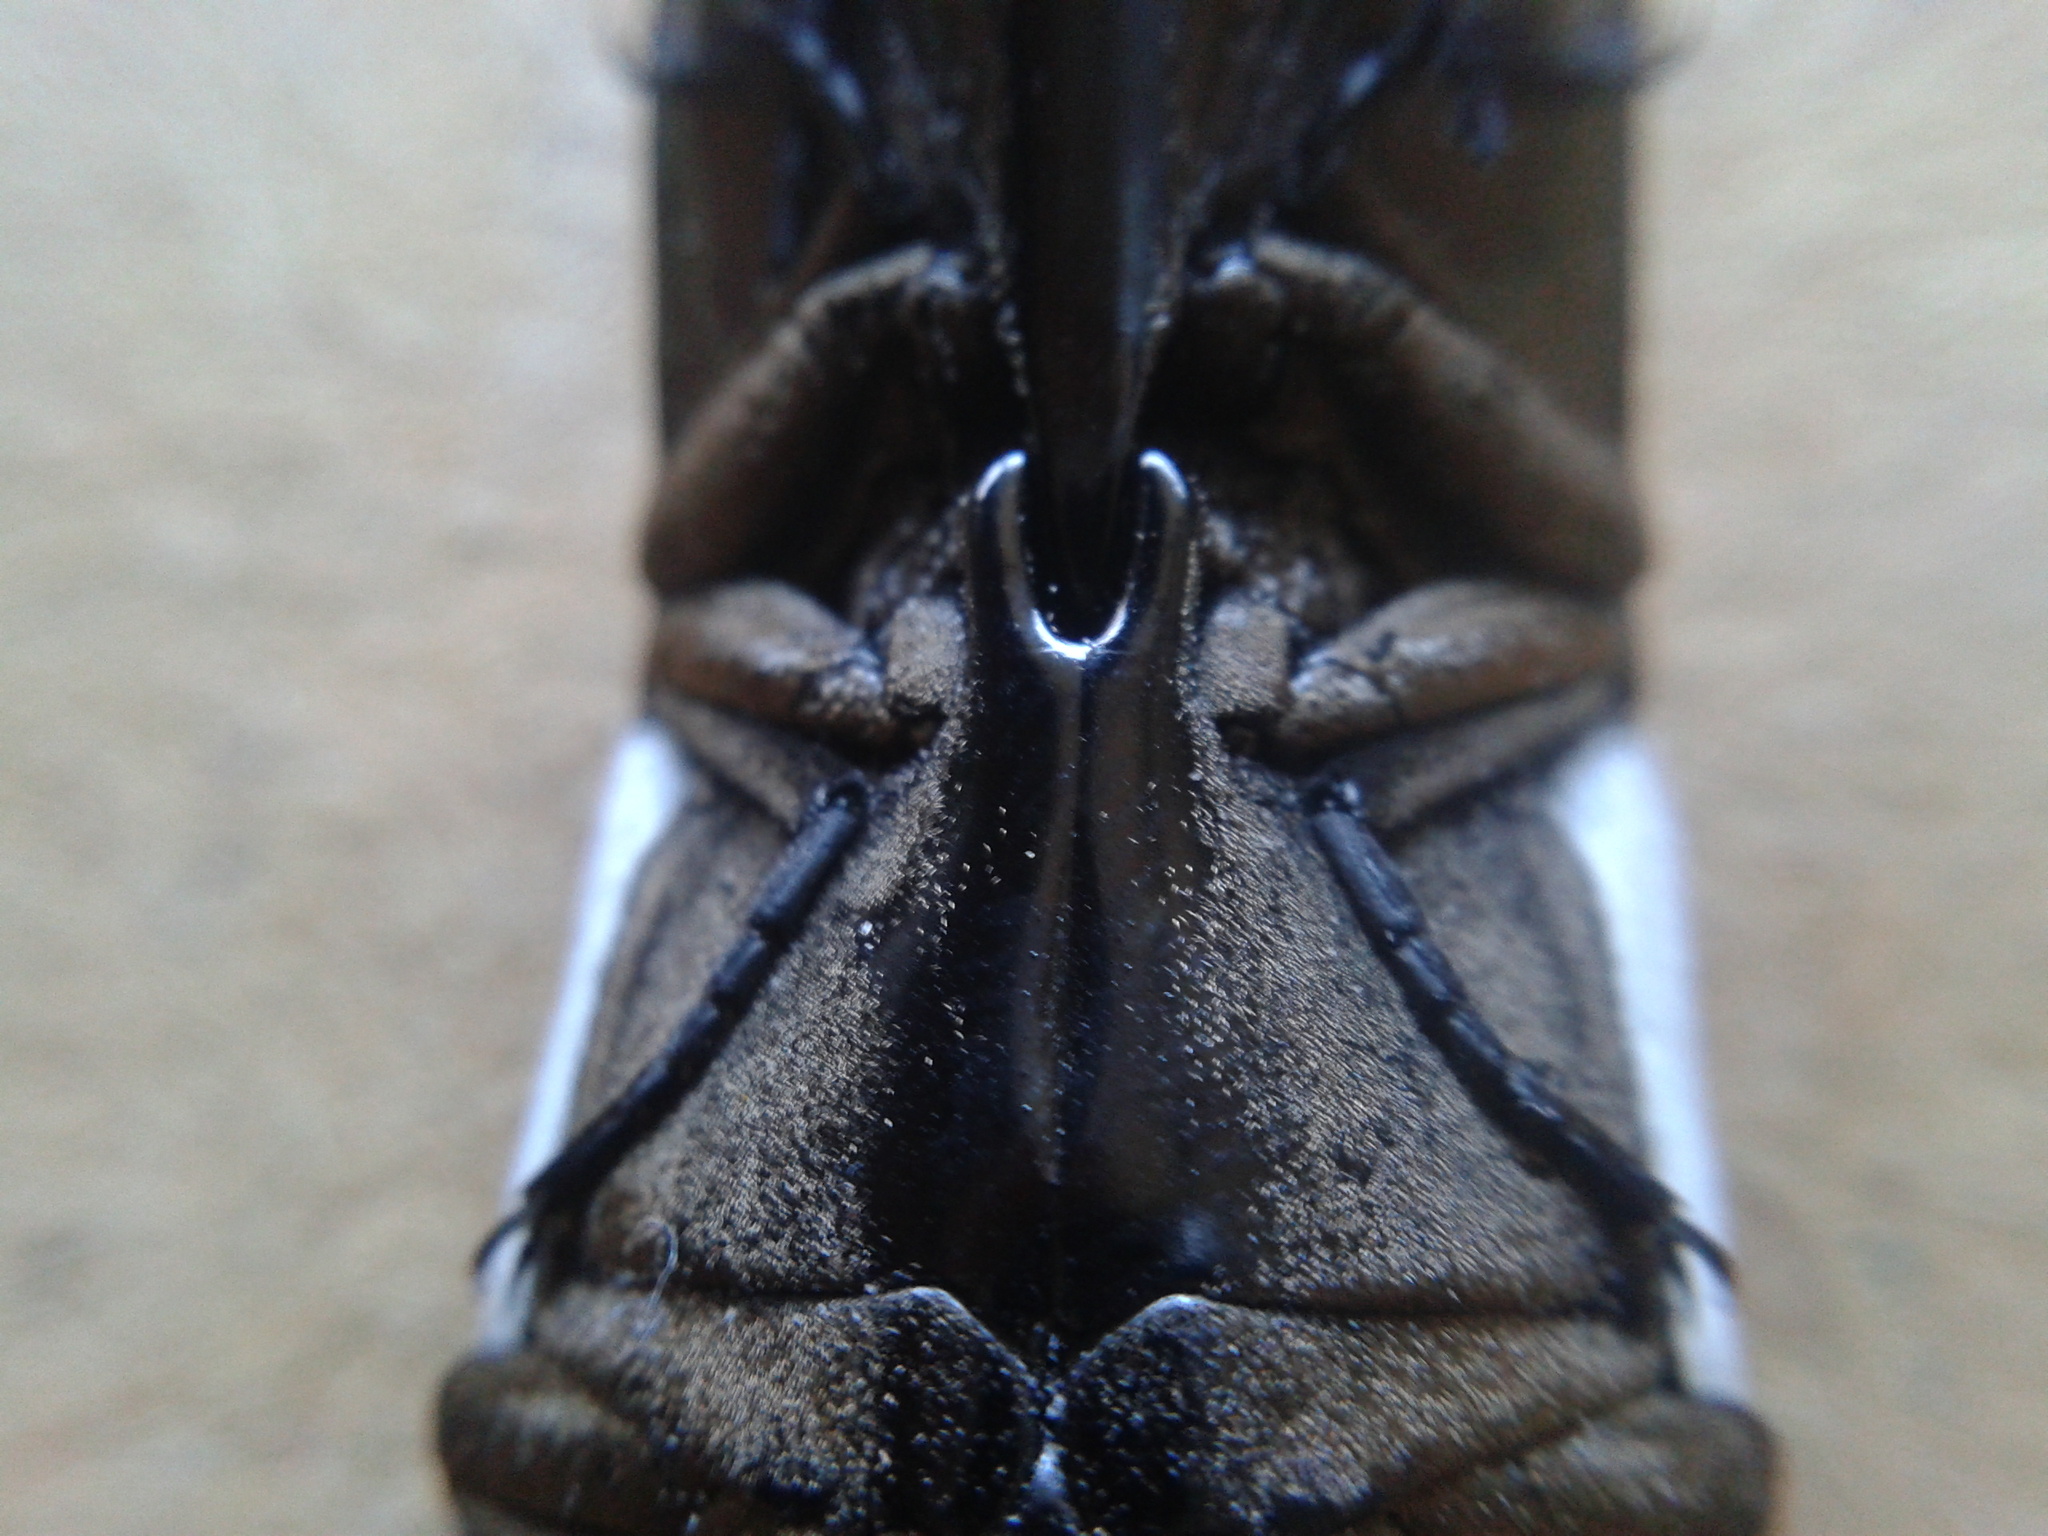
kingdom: Animalia
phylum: Arthropoda
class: Insecta
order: Coleoptera
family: Elateridae
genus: Chalcolepidius
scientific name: Chalcolepidius
